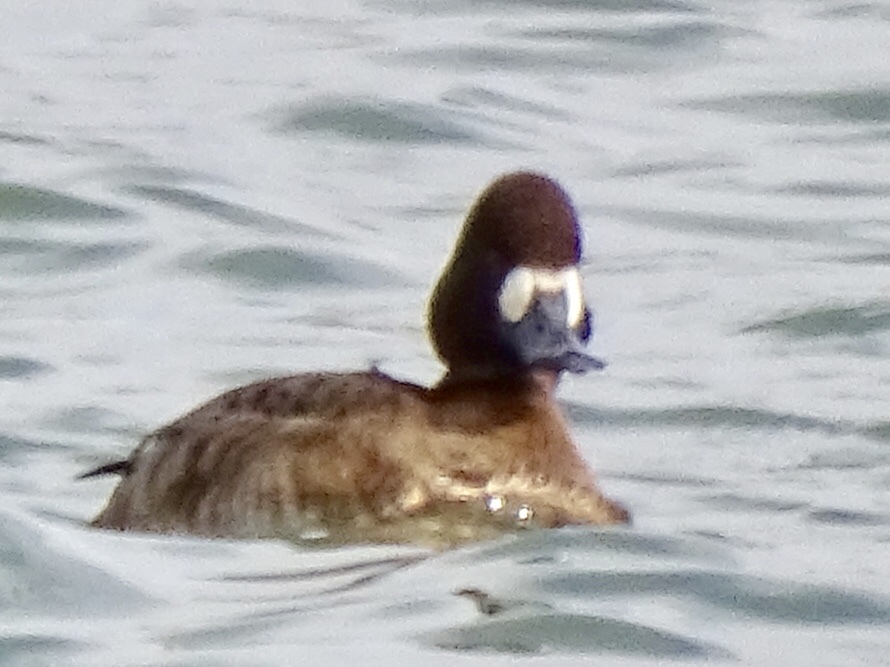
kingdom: Animalia
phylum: Chordata
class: Aves
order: Anseriformes
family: Anatidae
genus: Aythya
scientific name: Aythya affinis
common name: Lesser scaup
